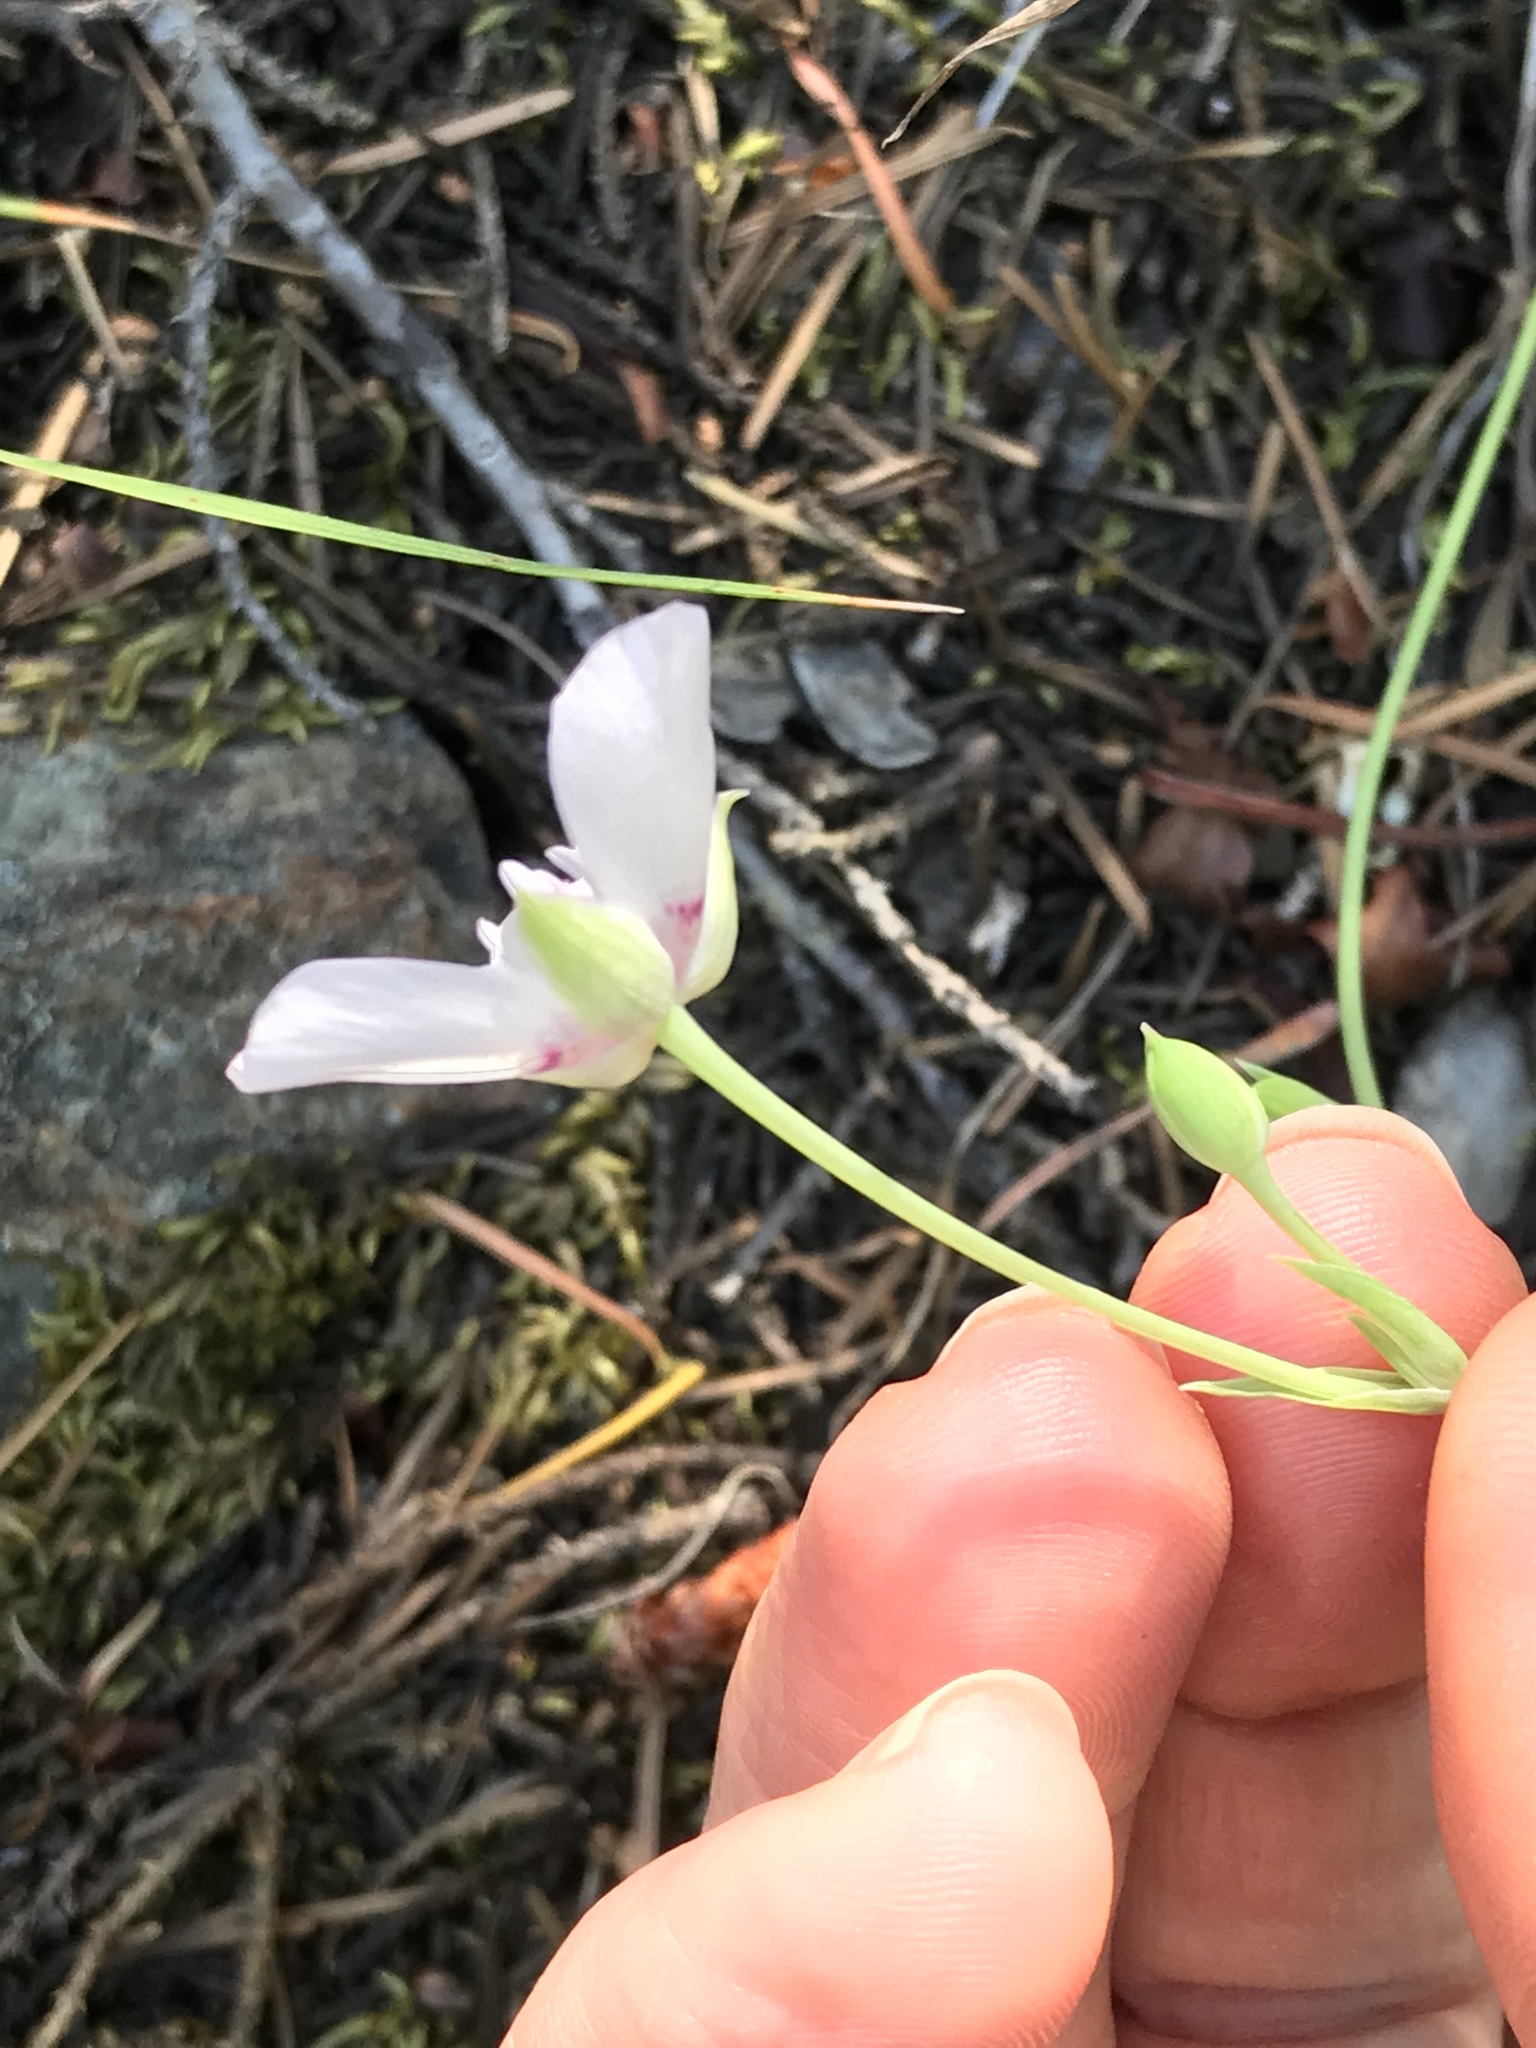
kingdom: Plantae
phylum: Tracheophyta
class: Liliopsida
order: Liliales
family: Liliaceae
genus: Calochortus
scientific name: Calochortus umbellatus
